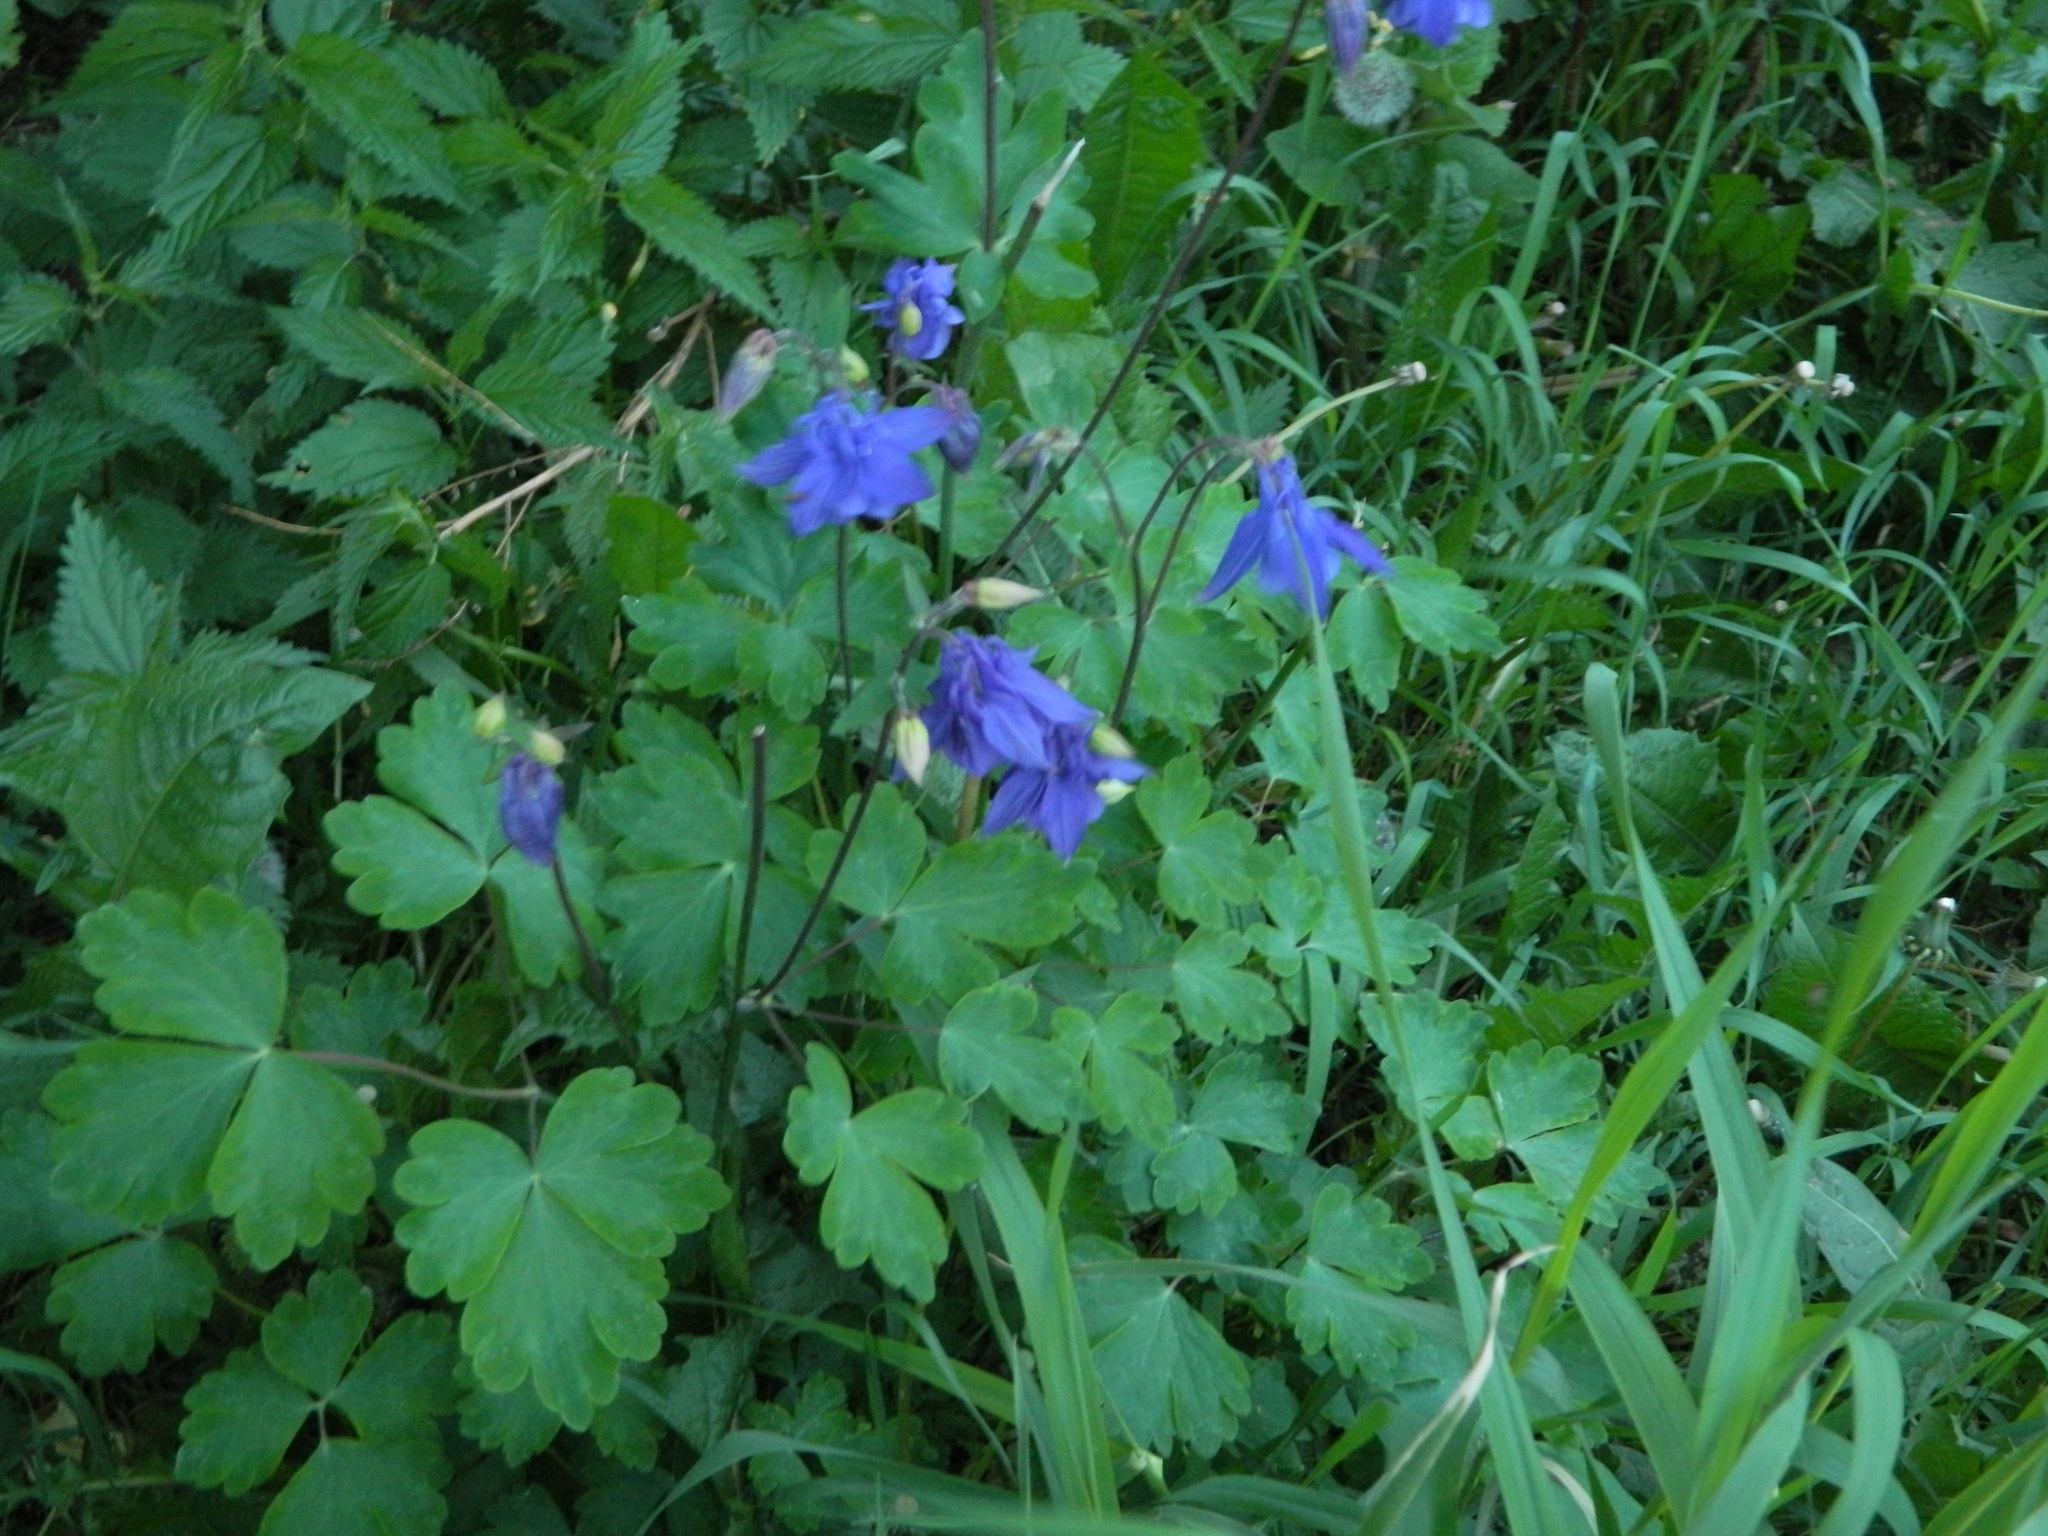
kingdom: Plantae
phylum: Tracheophyta
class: Magnoliopsida
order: Ranunculales
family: Ranunculaceae
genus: Aquilegia
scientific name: Aquilegia vulgaris
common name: Columbine
